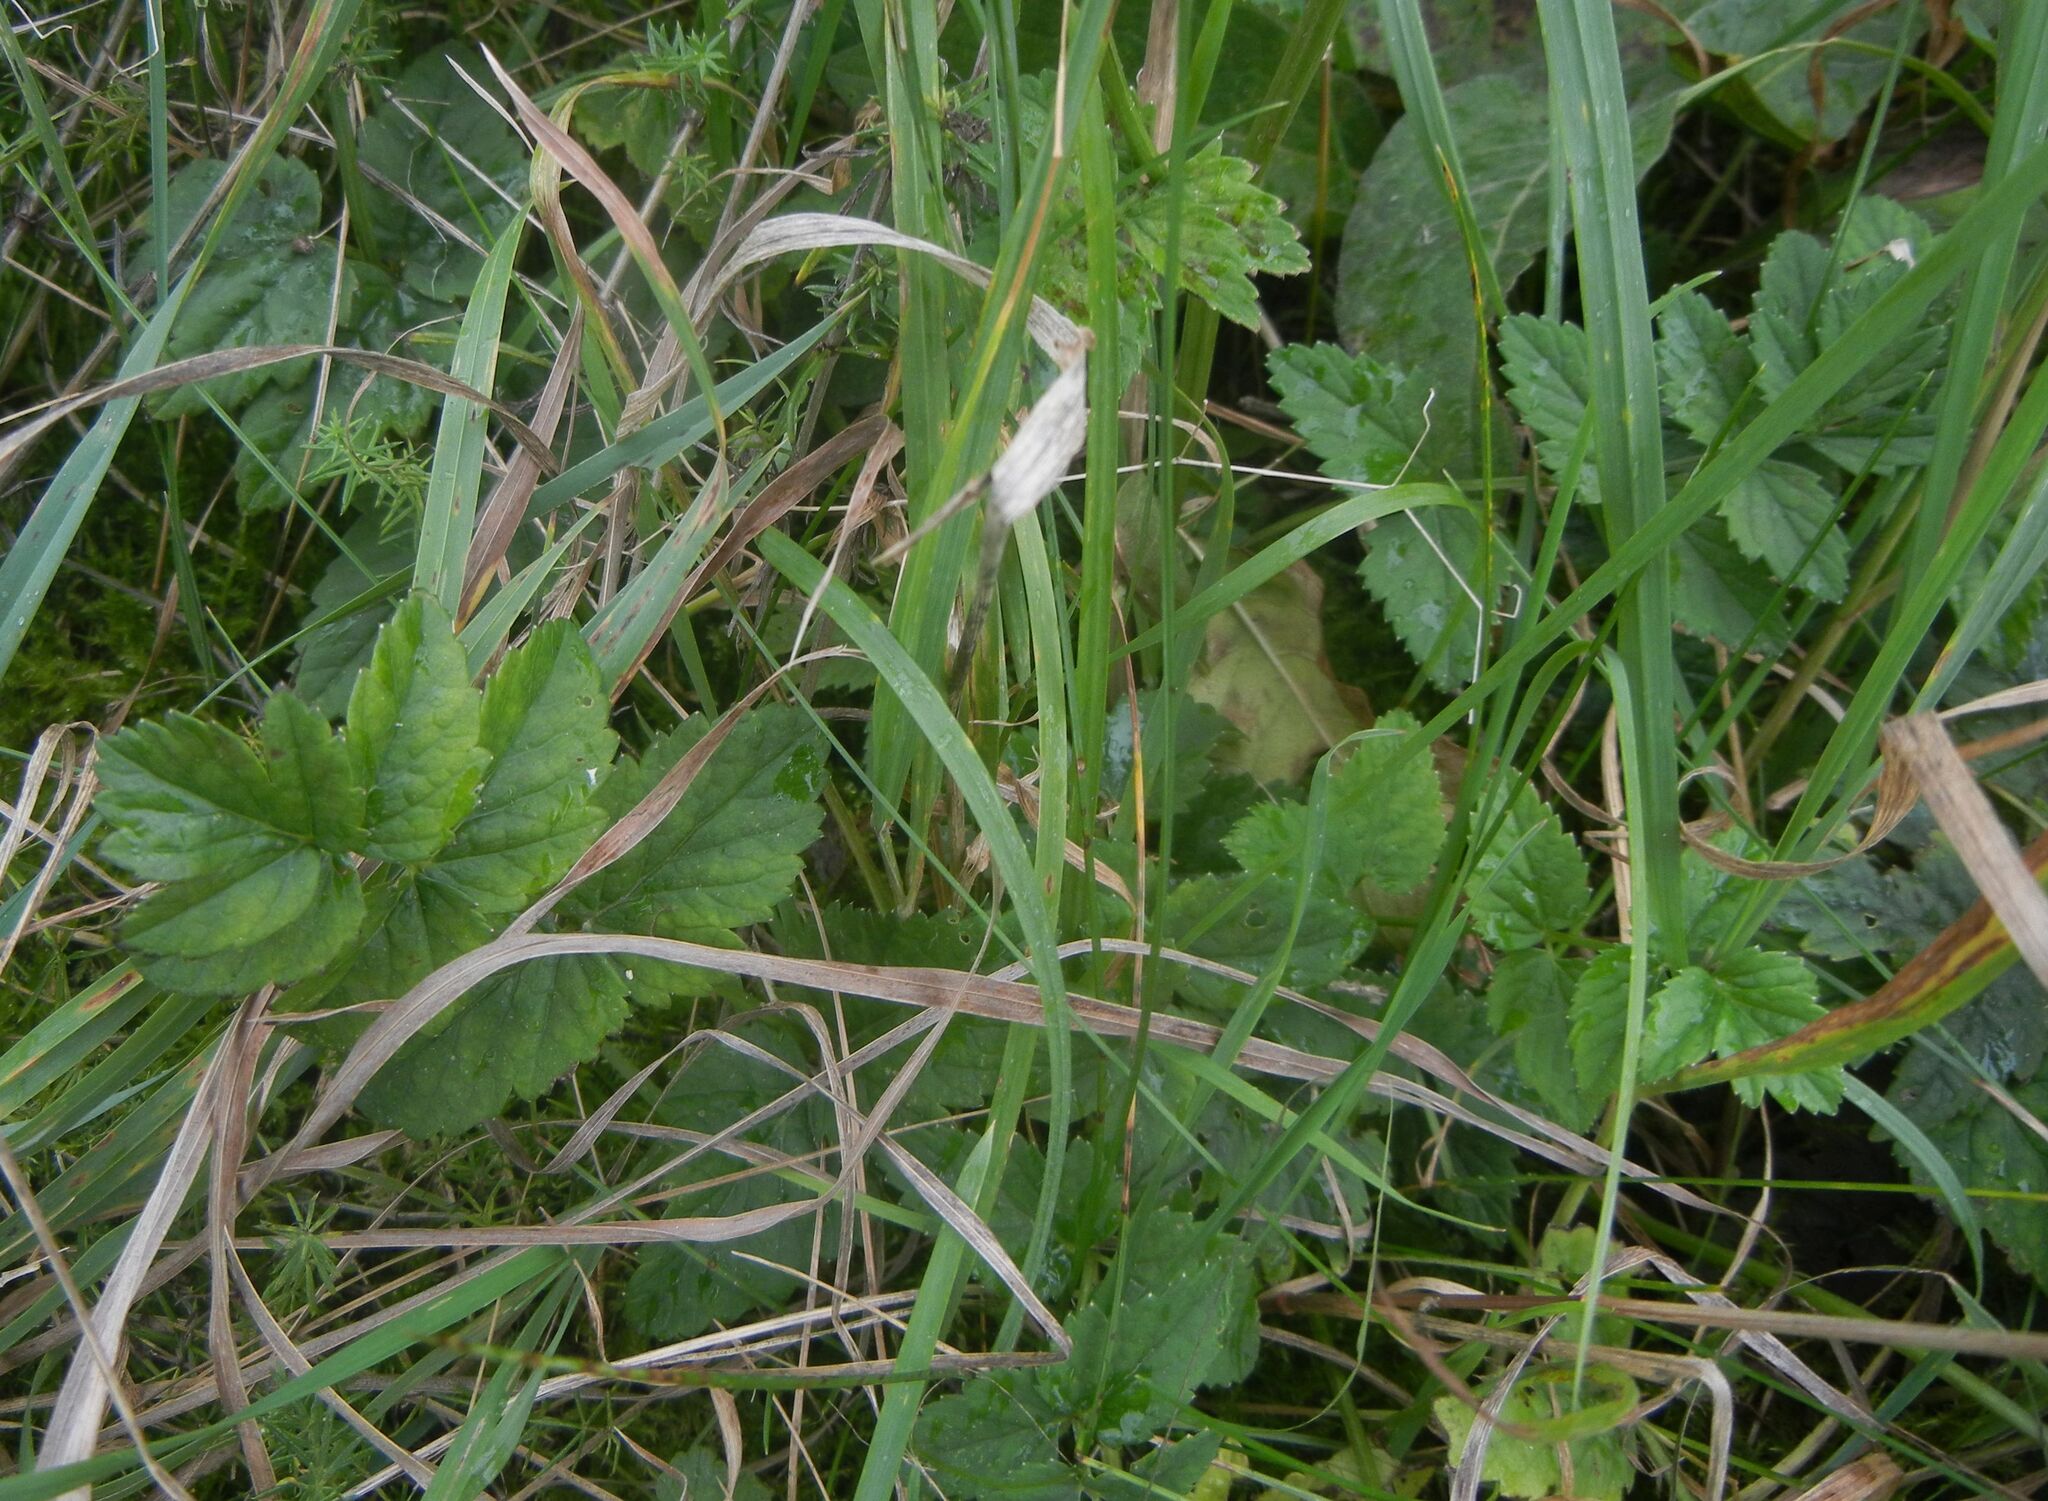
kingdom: Plantae
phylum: Tracheophyta
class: Magnoliopsida
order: Apiales
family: Apiaceae
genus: Pimpinella
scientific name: Pimpinella major
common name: Greater burnet-saxifrage
